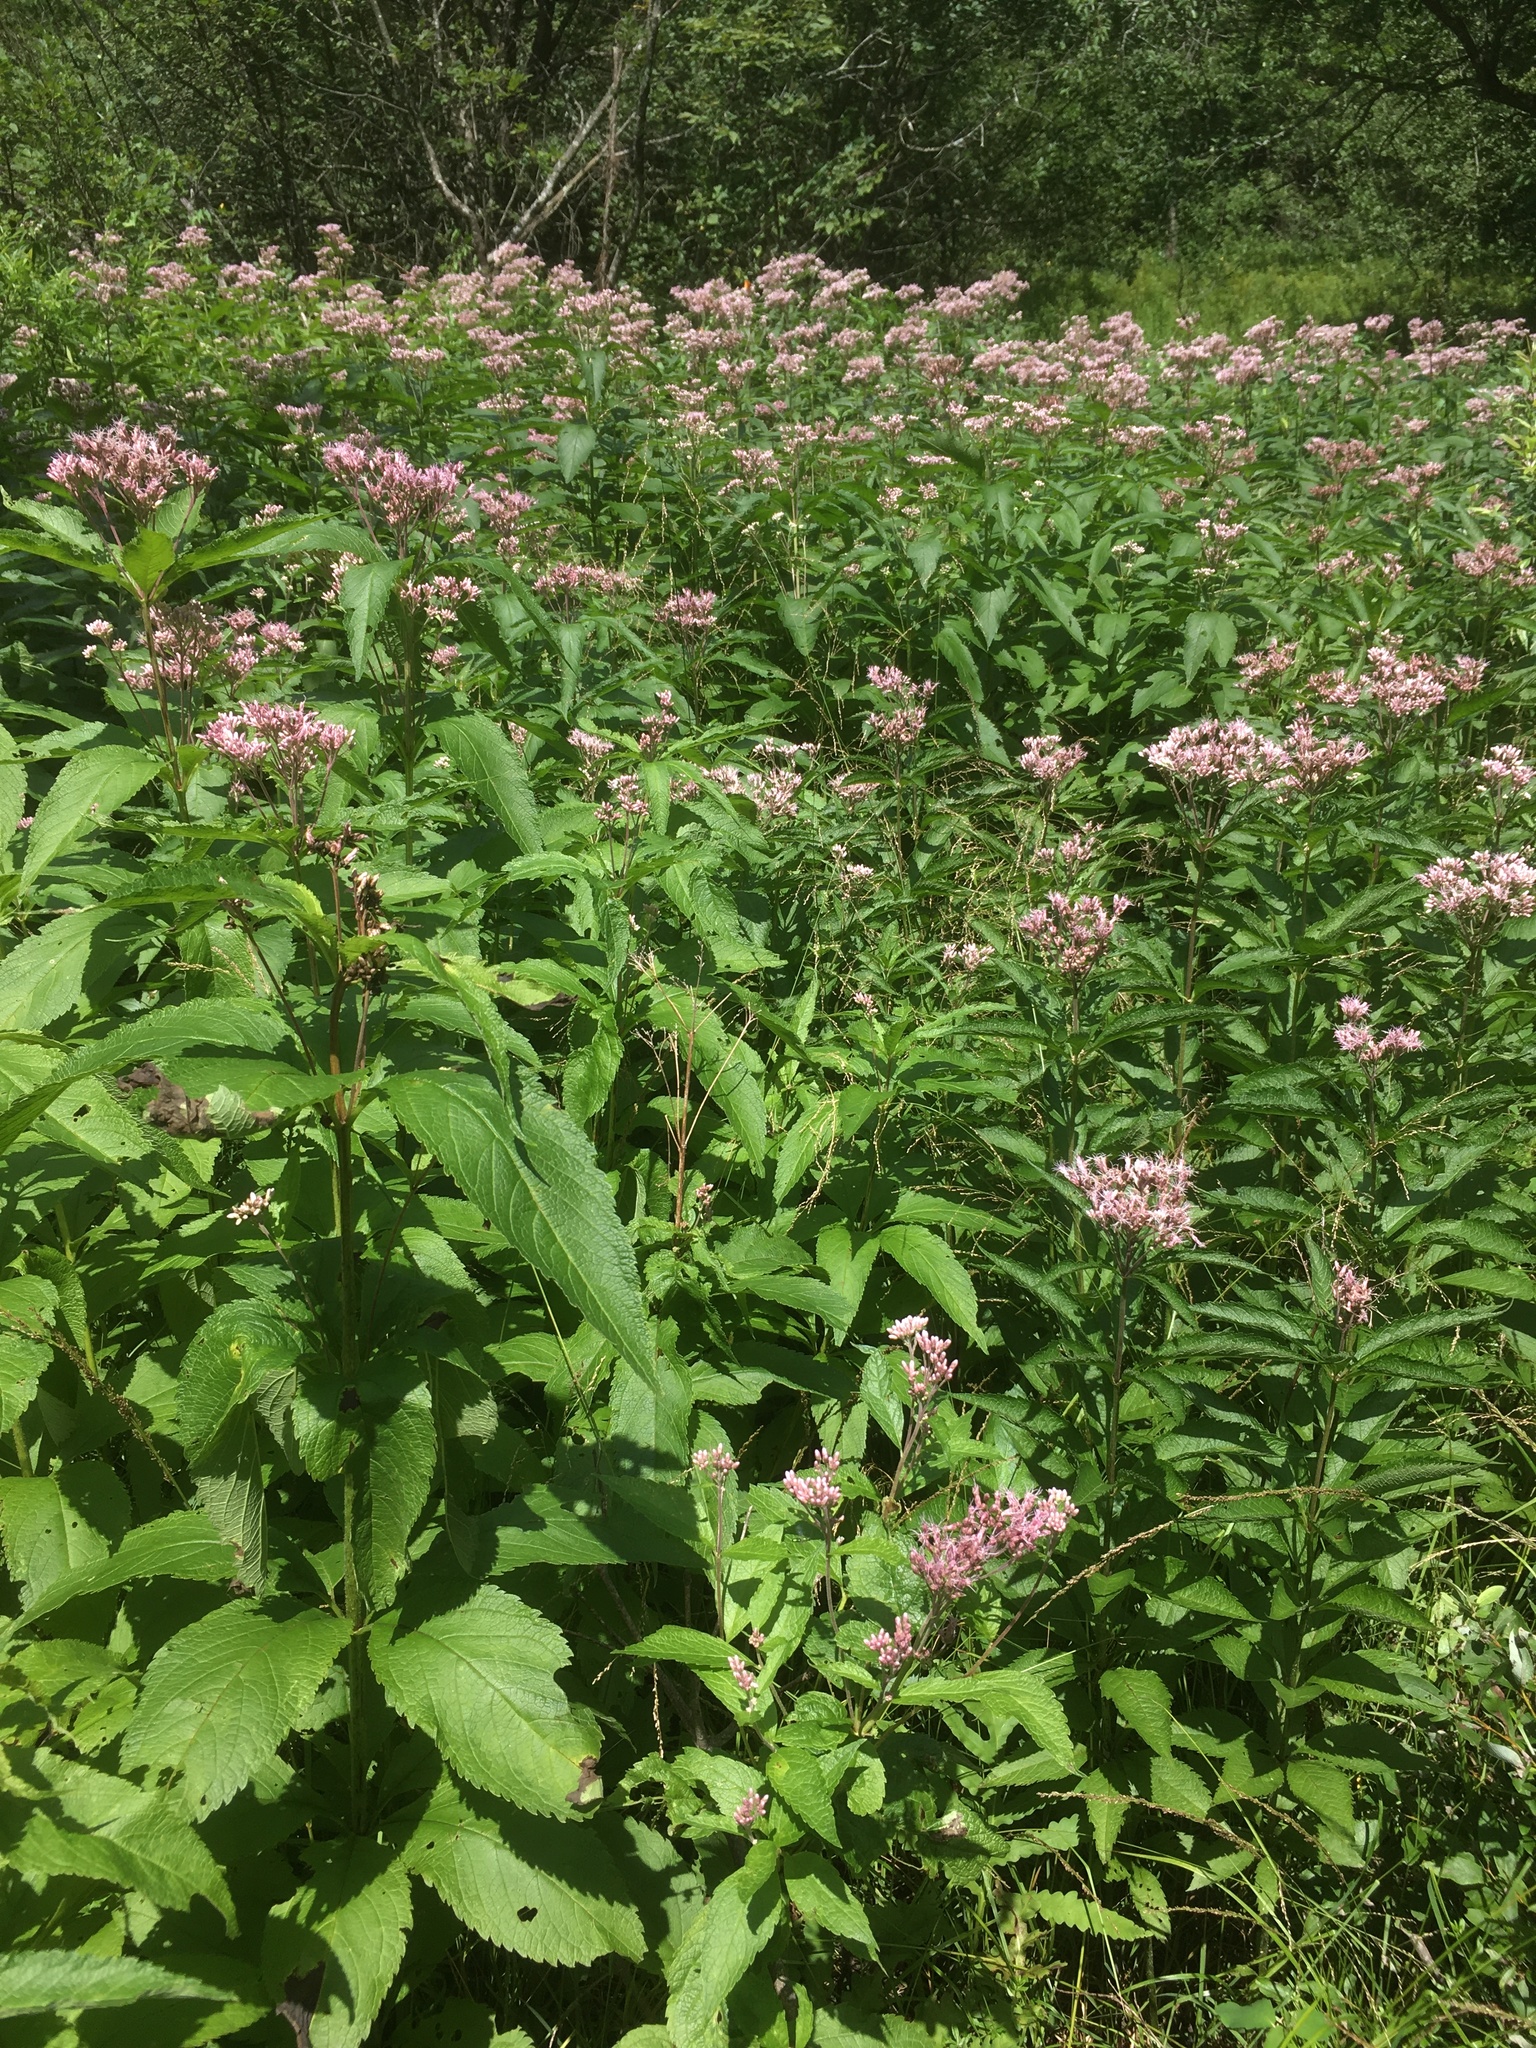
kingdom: Plantae
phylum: Tracheophyta
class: Magnoliopsida
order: Asterales
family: Asteraceae
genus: Eutrochium
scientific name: Eutrochium maculatum
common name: Spotted joe pye weed
